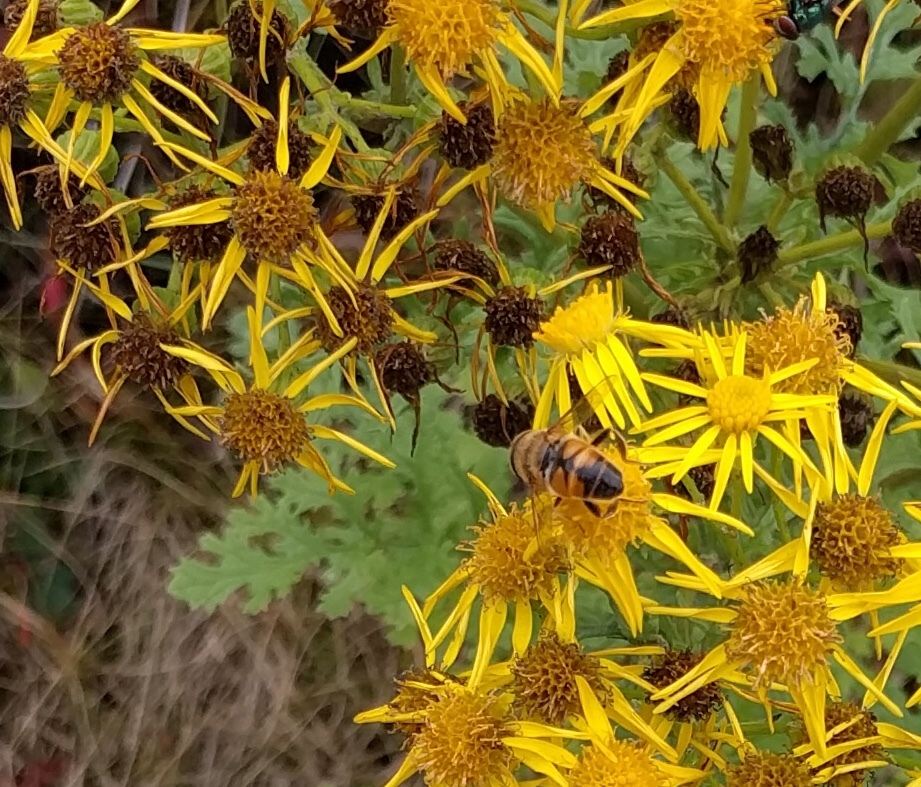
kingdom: Animalia
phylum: Arthropoda
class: Insecta
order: Diptera
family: Syrphidae
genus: Eristalis
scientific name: Eristalis tenax
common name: Drone fly
